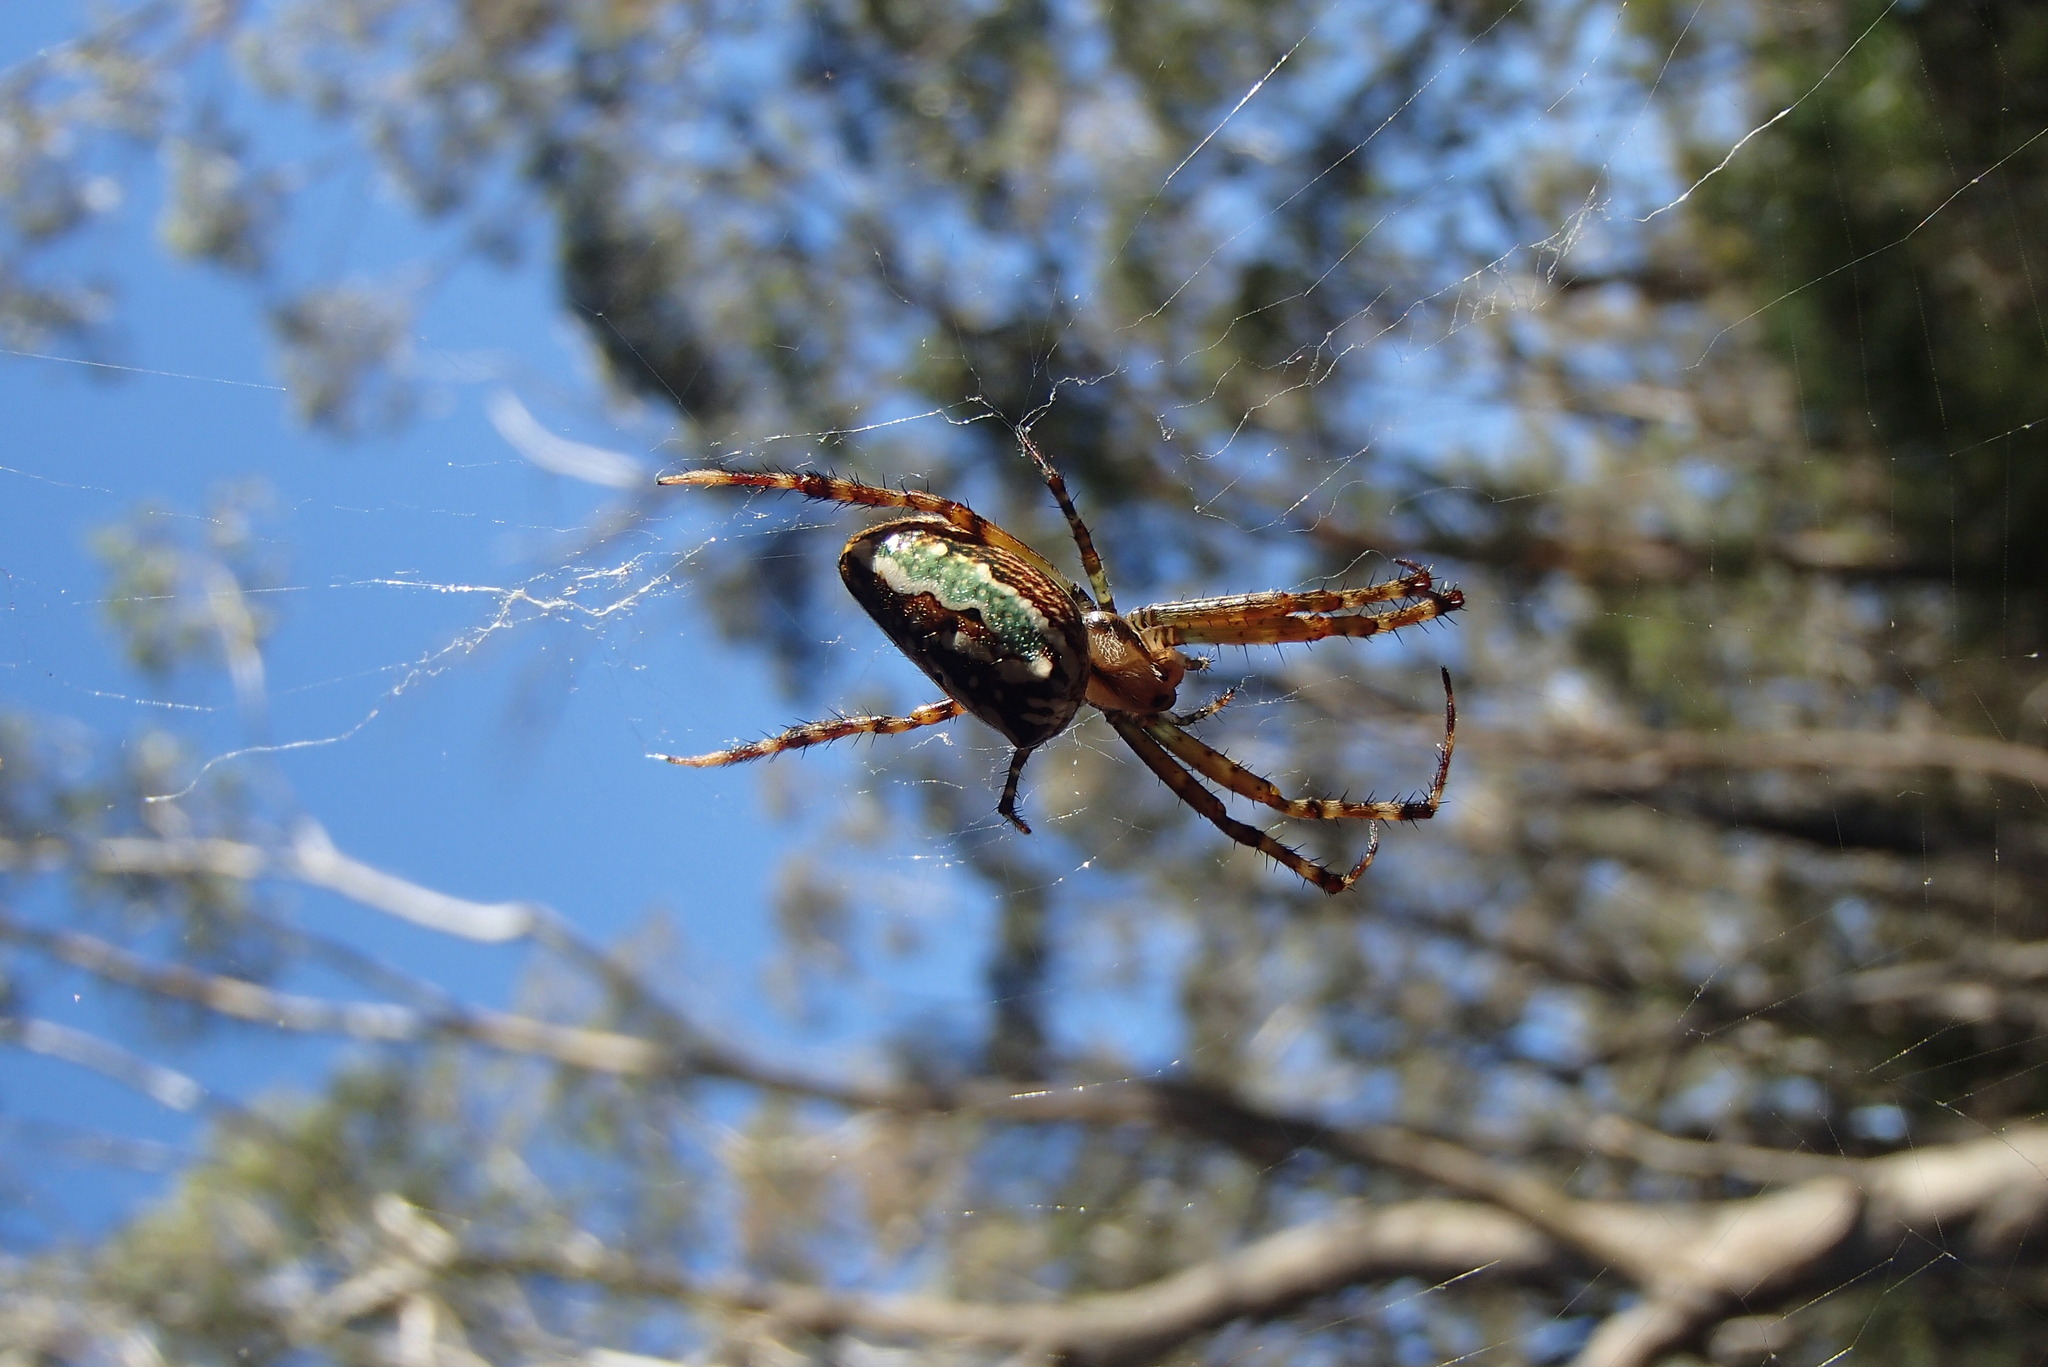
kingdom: Animalia
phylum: Arthropoda
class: Arachnida
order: Araneae
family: Araneidae
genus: Plebs
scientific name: Plebs bradleyi
